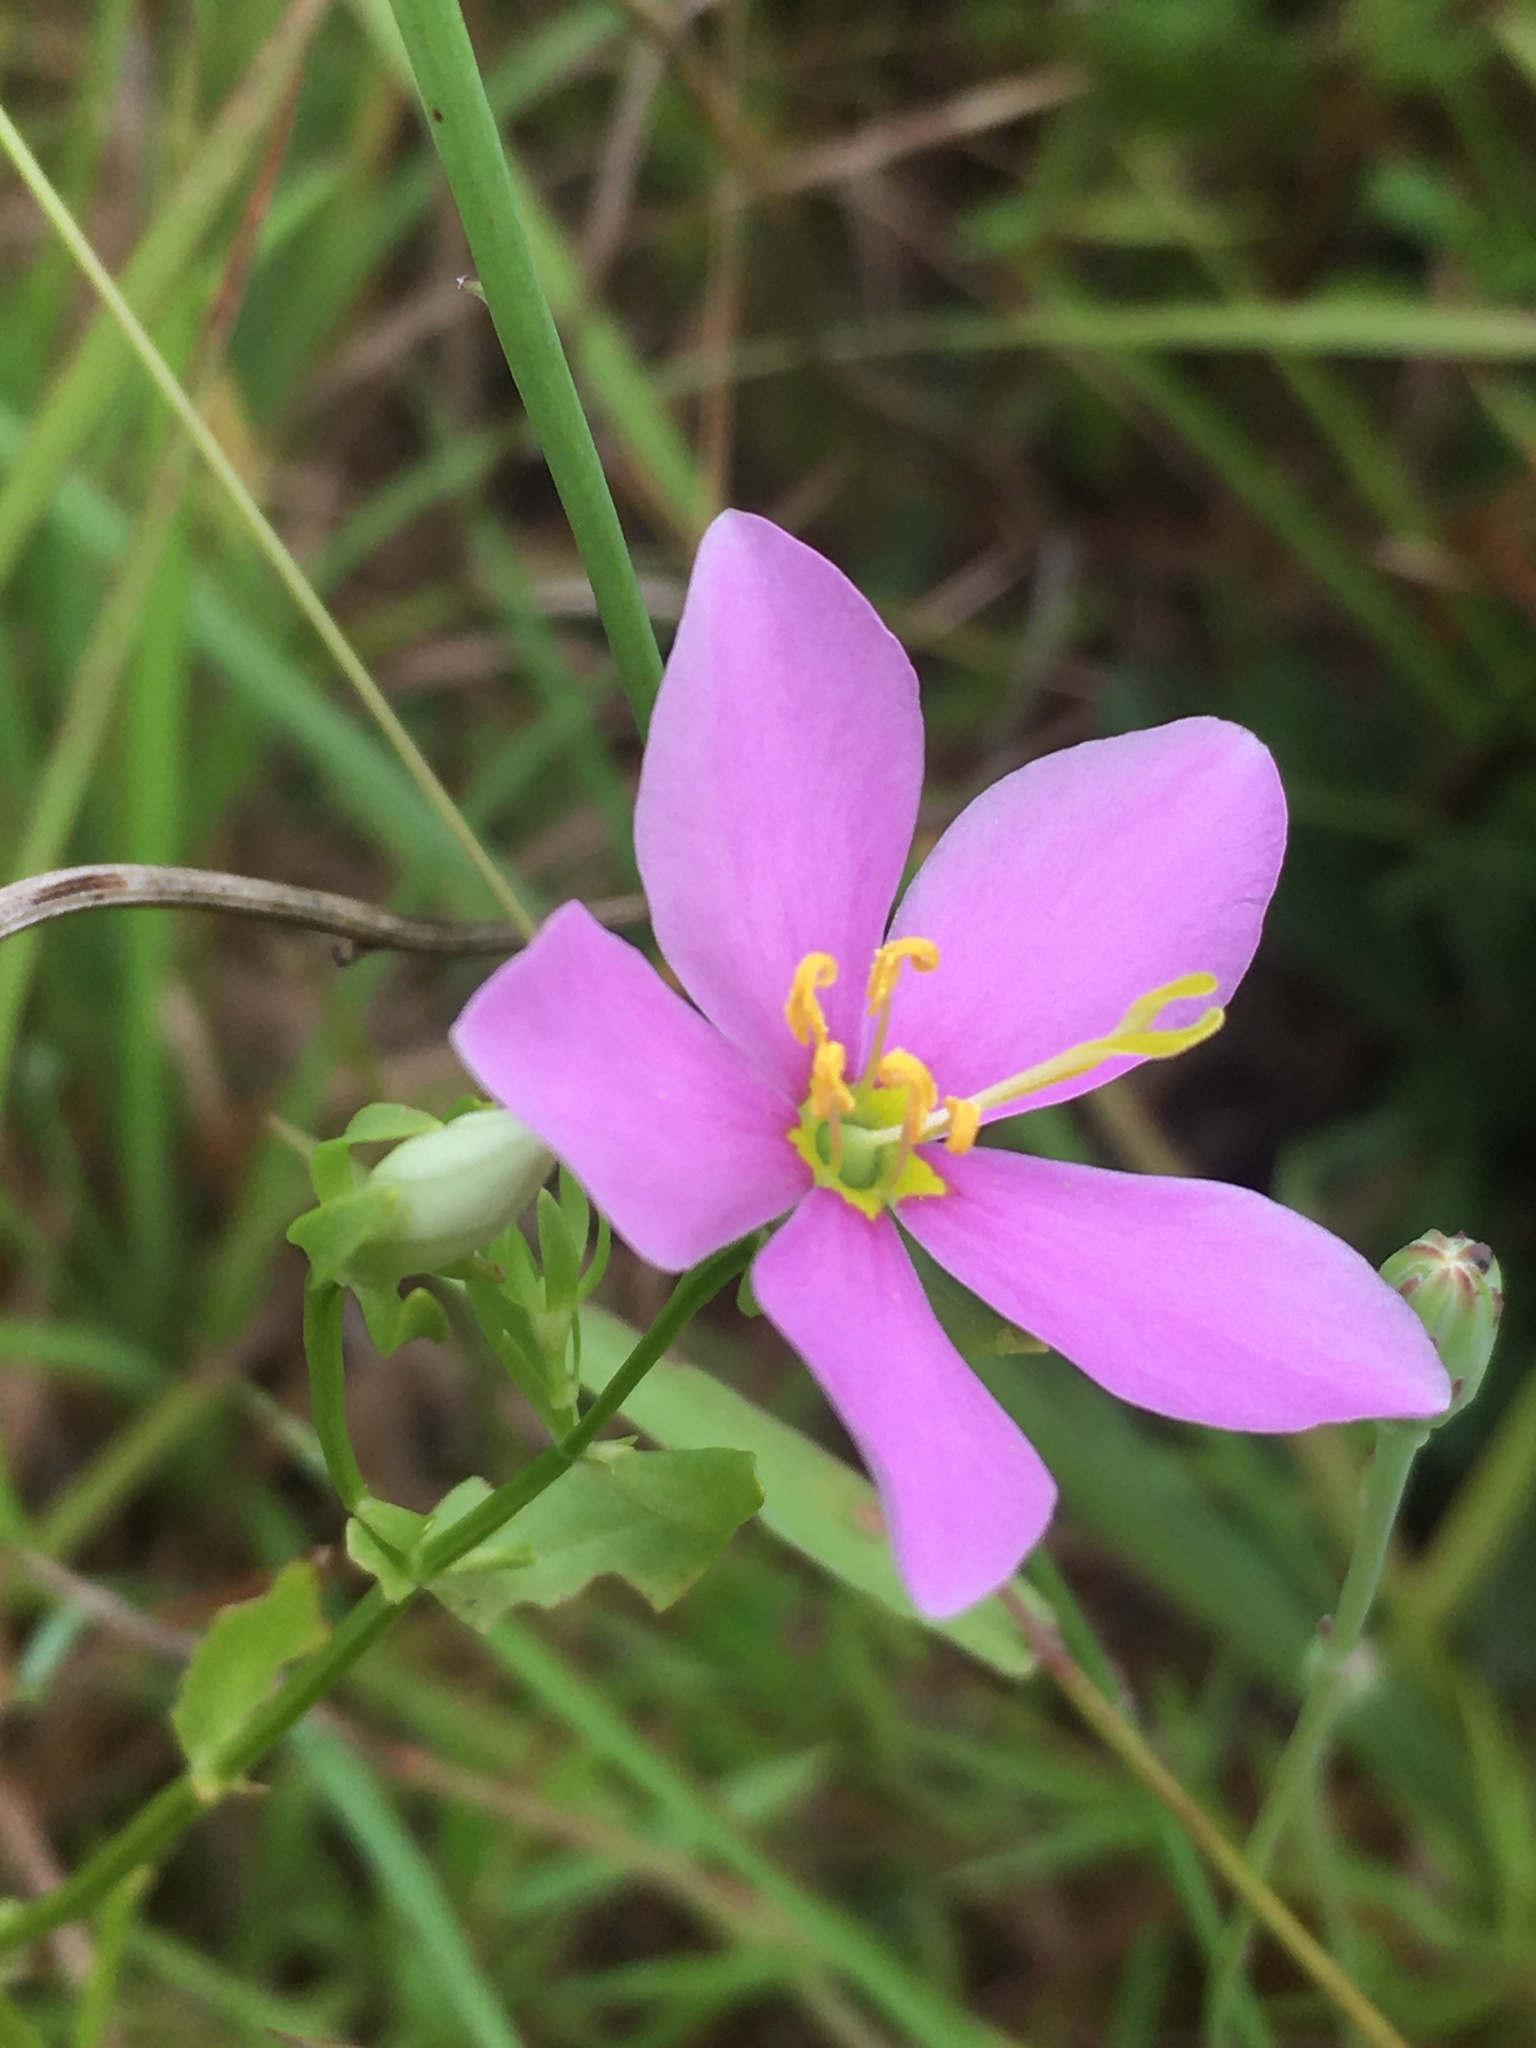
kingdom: Plantae
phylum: Tracheophyta
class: Magnoliopsida
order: Gentianales
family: Gentianaceae
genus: Sabatia
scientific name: Sabatia angularis
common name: Rose-pink
